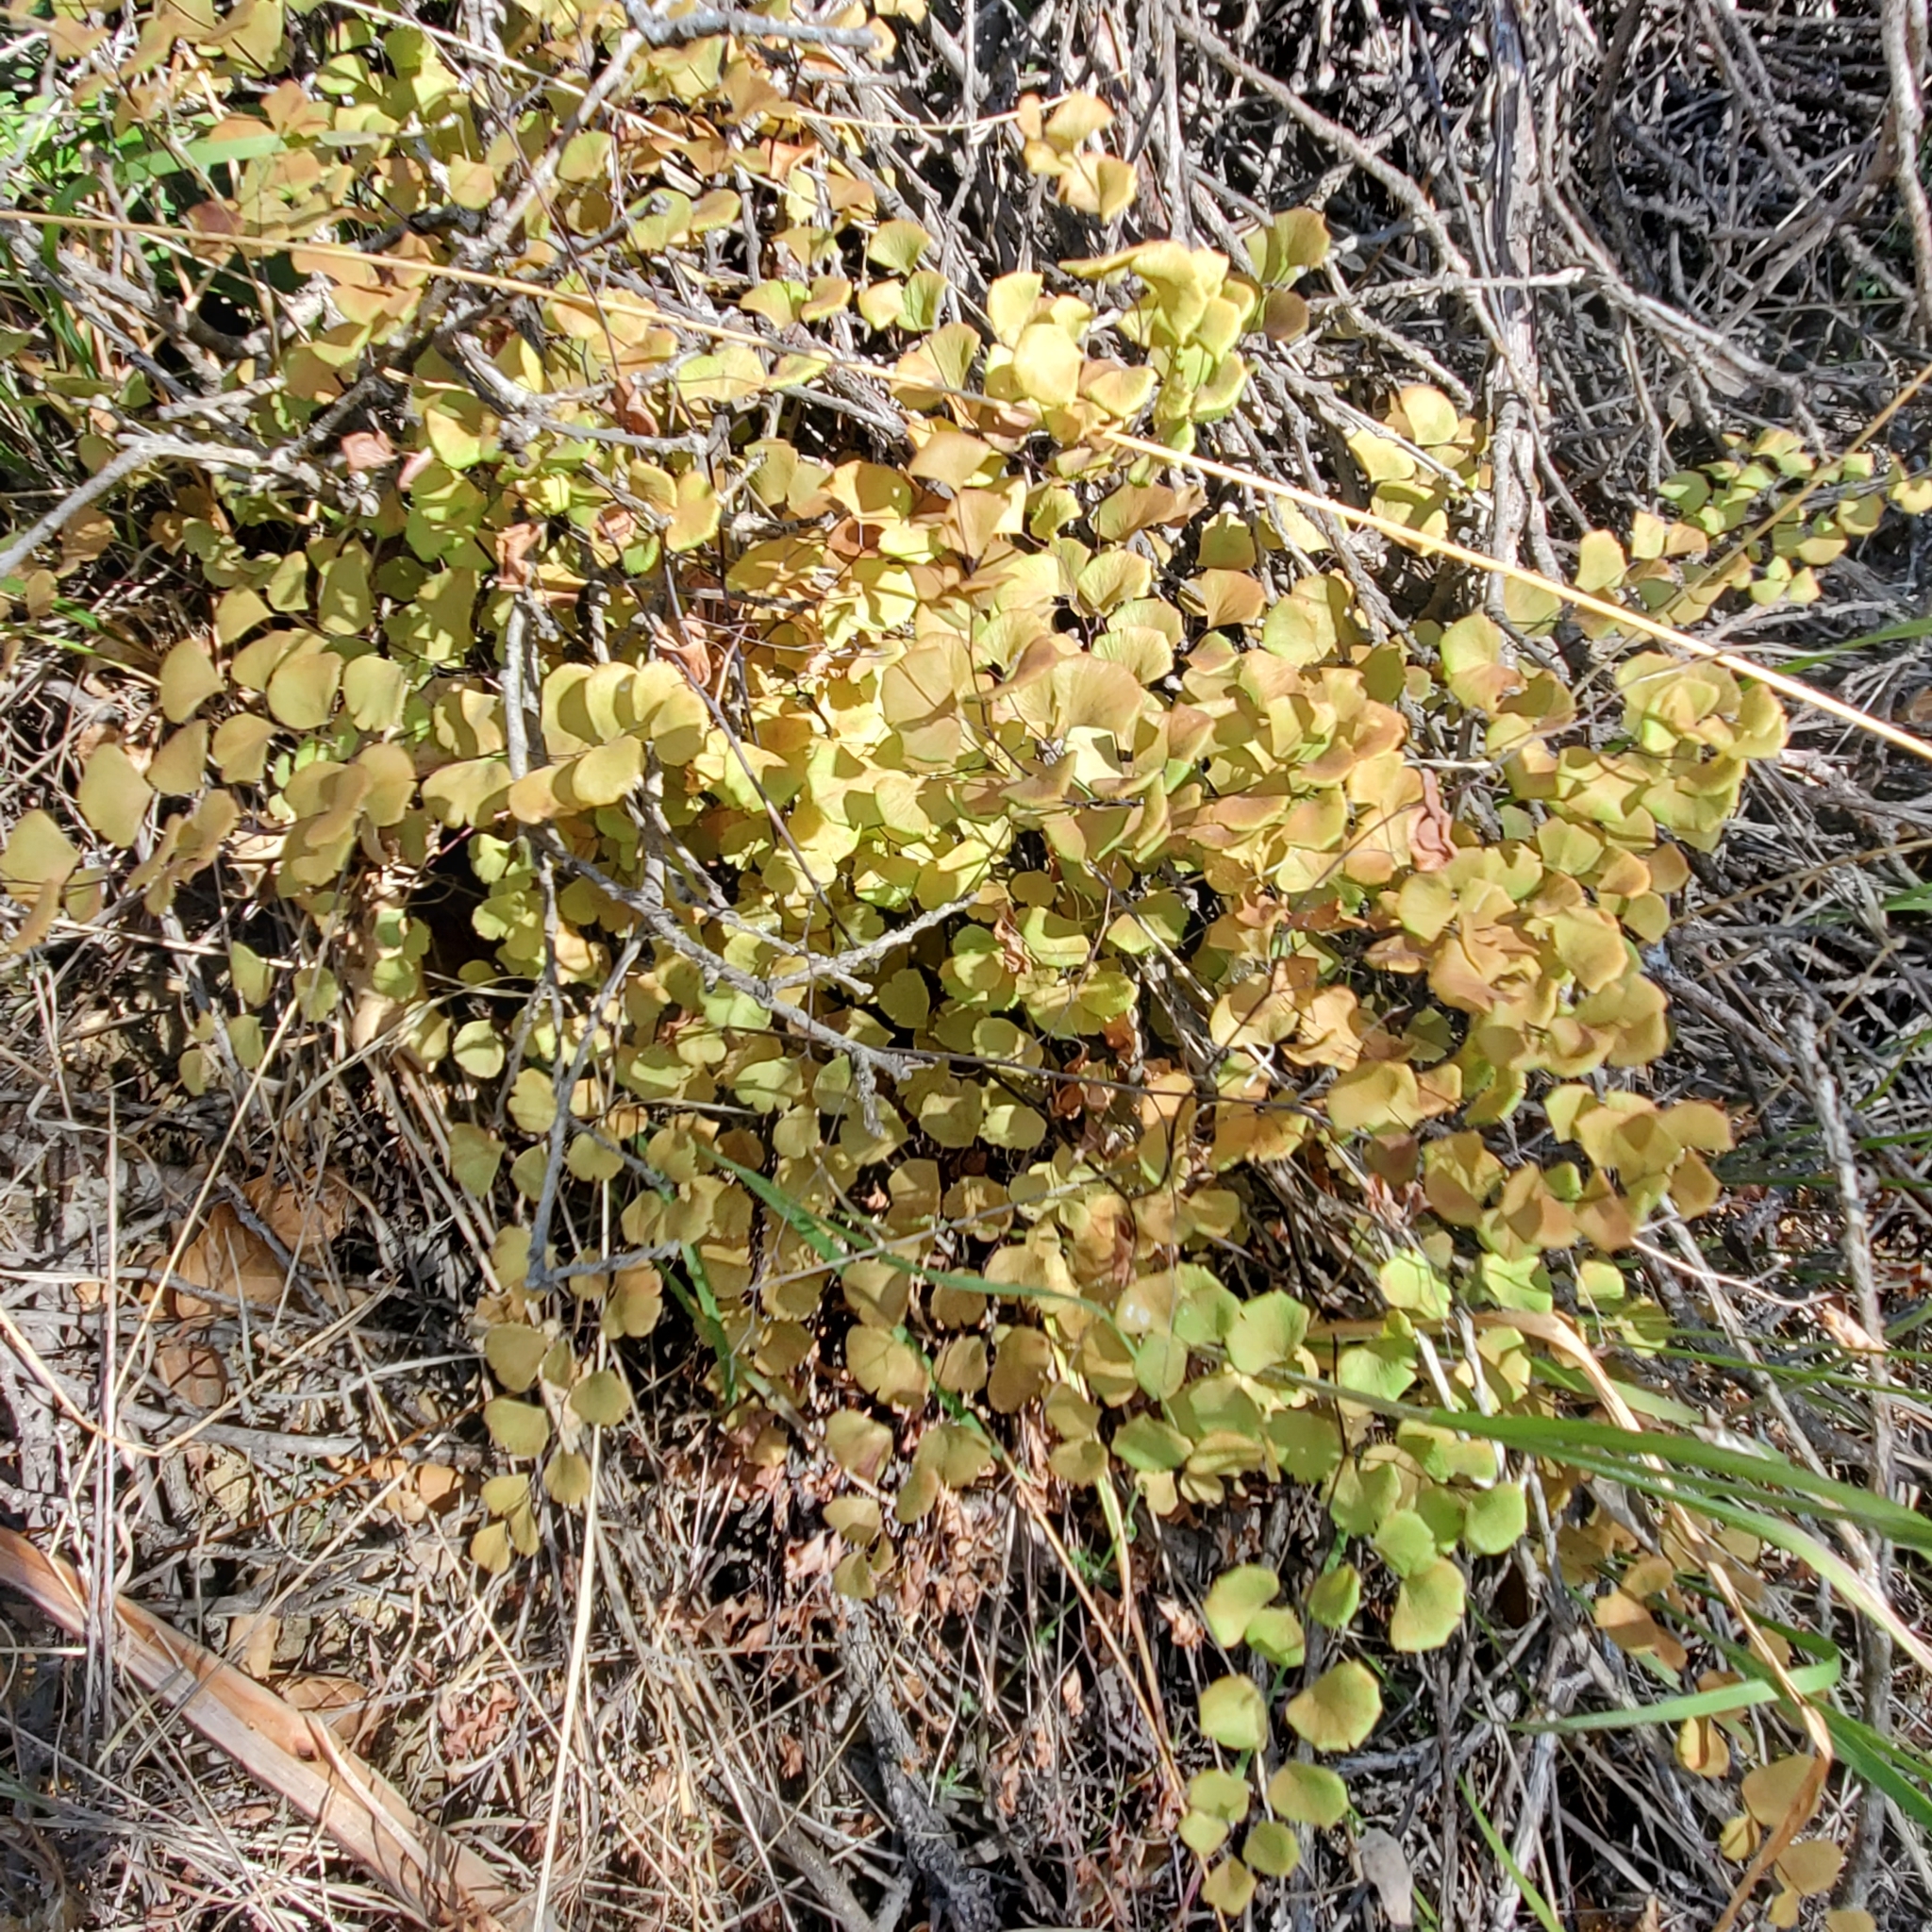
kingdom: Plantae
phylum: Tracheophyta
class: Polypodiopsida
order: Polypodiales
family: Pteridaceae
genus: Adiantum
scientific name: Adiantum jordanii
